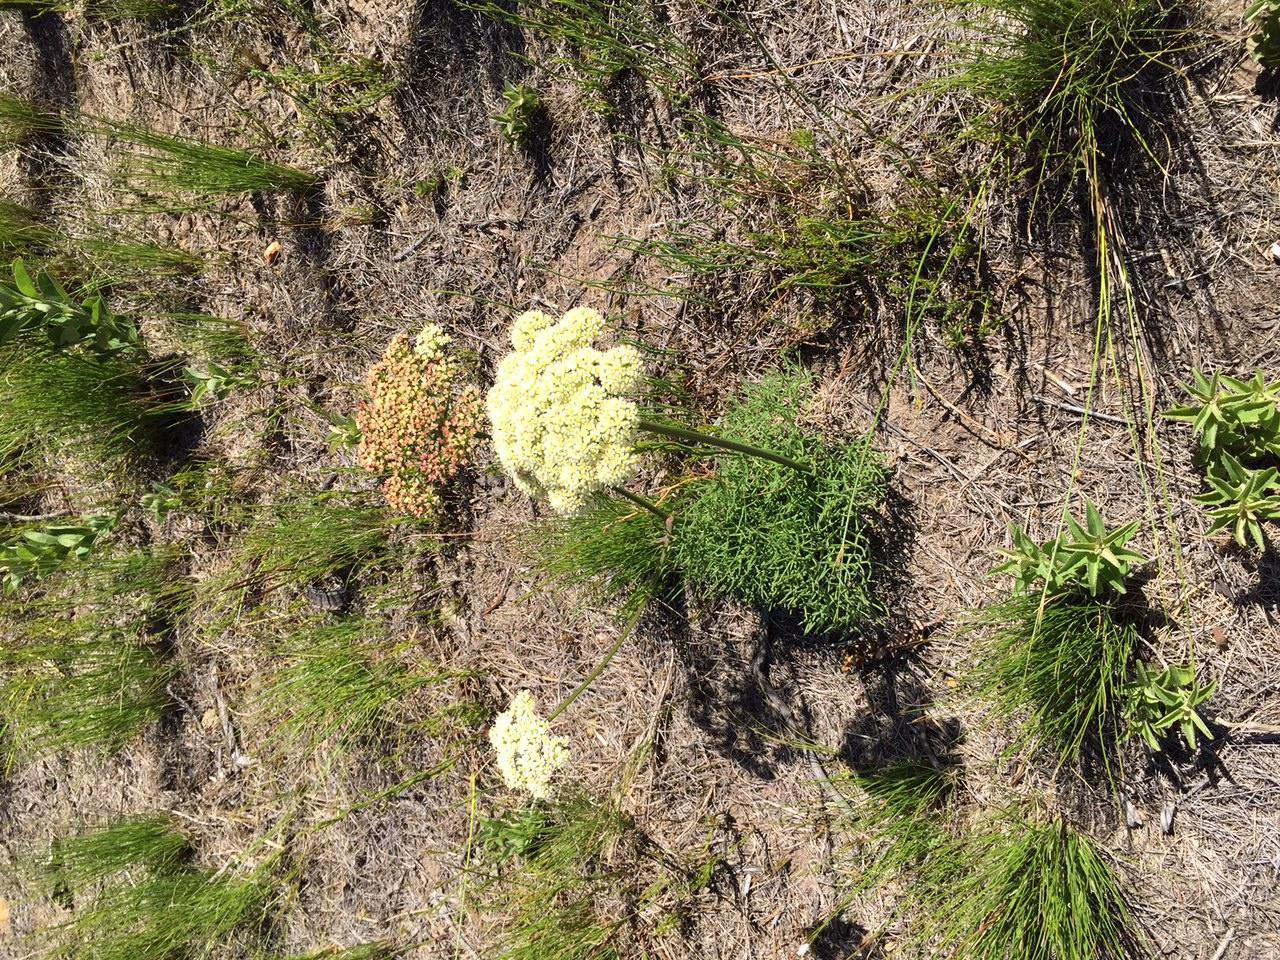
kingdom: Plantae
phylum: Tracheophyta
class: Magnoliopsida
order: Apiales
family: Apiaceae
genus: Nanobubon
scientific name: Nanobubon capillaceum
